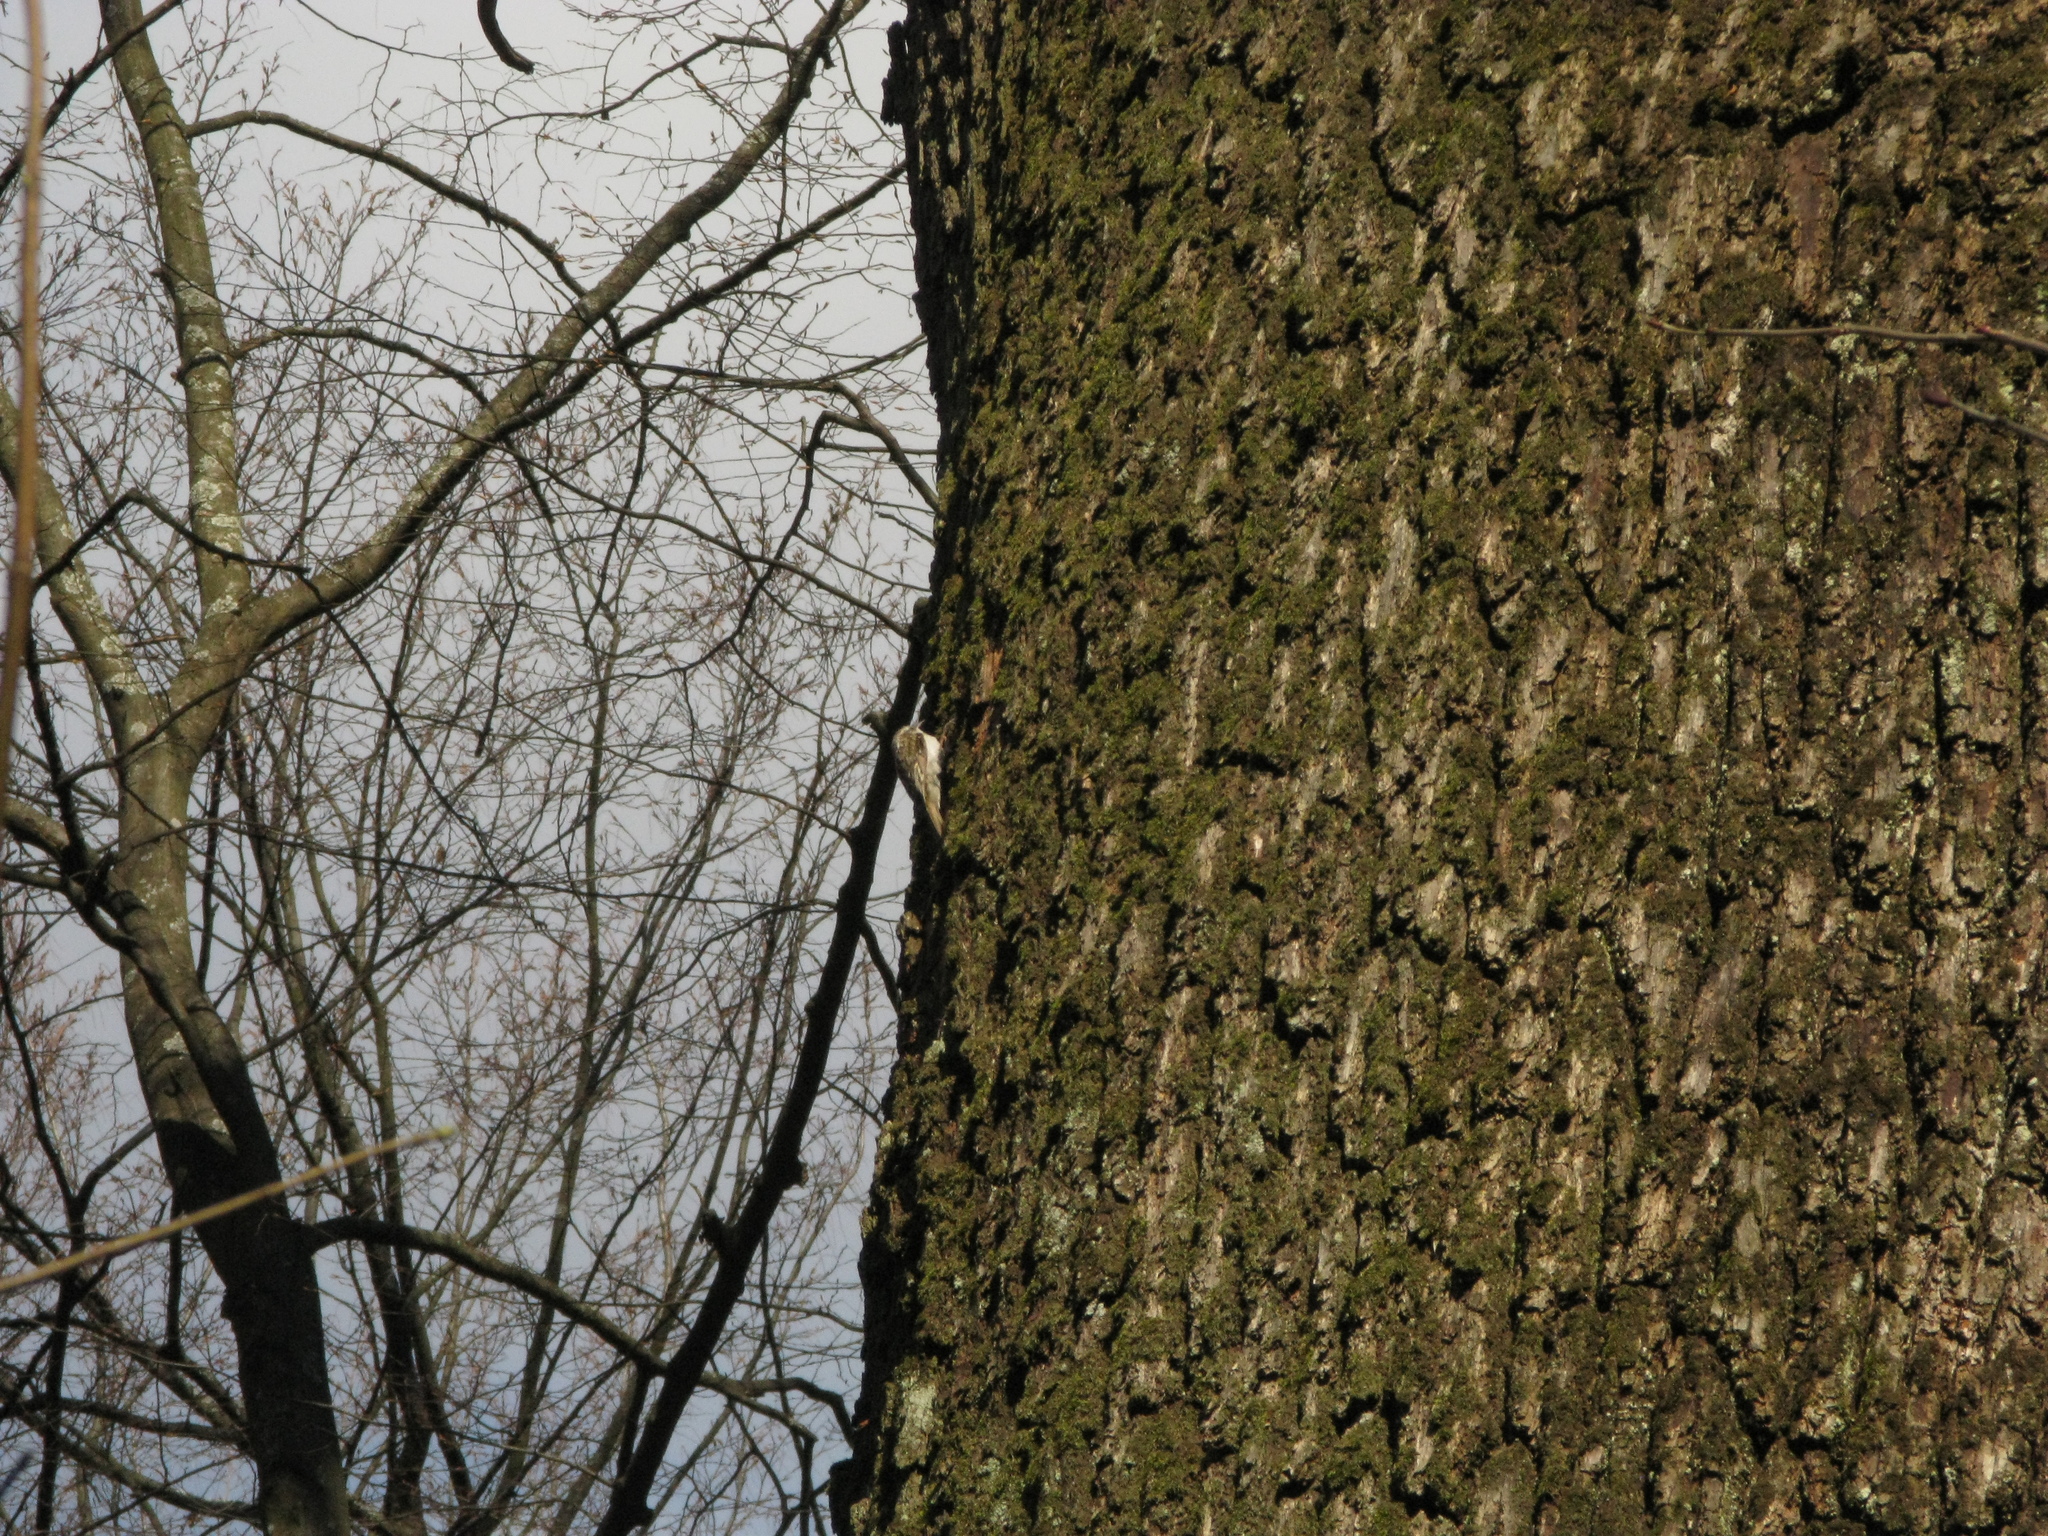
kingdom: Animalia
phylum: Chordata
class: Aves
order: Passeriformes
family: Certhiidae
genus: Certhia
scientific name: Certhia familiaris
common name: Eurasian treecreeper
